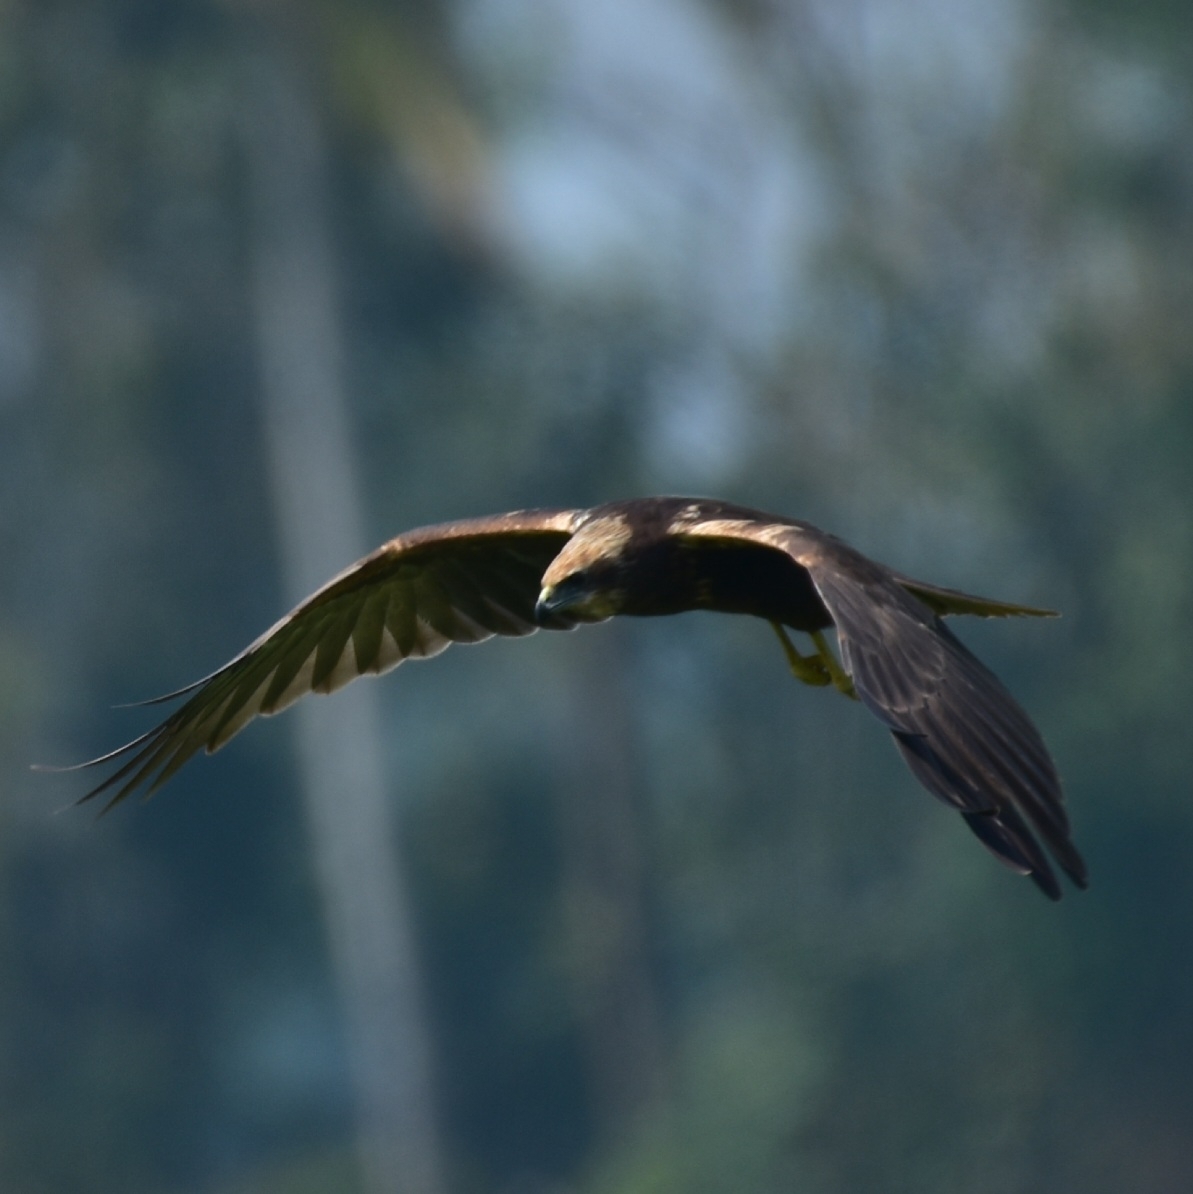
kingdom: Animalia
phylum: Chordata
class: Aves
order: Accipitriformes
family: Accipitridae
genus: Circus
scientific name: Circus aeruginosus
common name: Western marsh harrier
